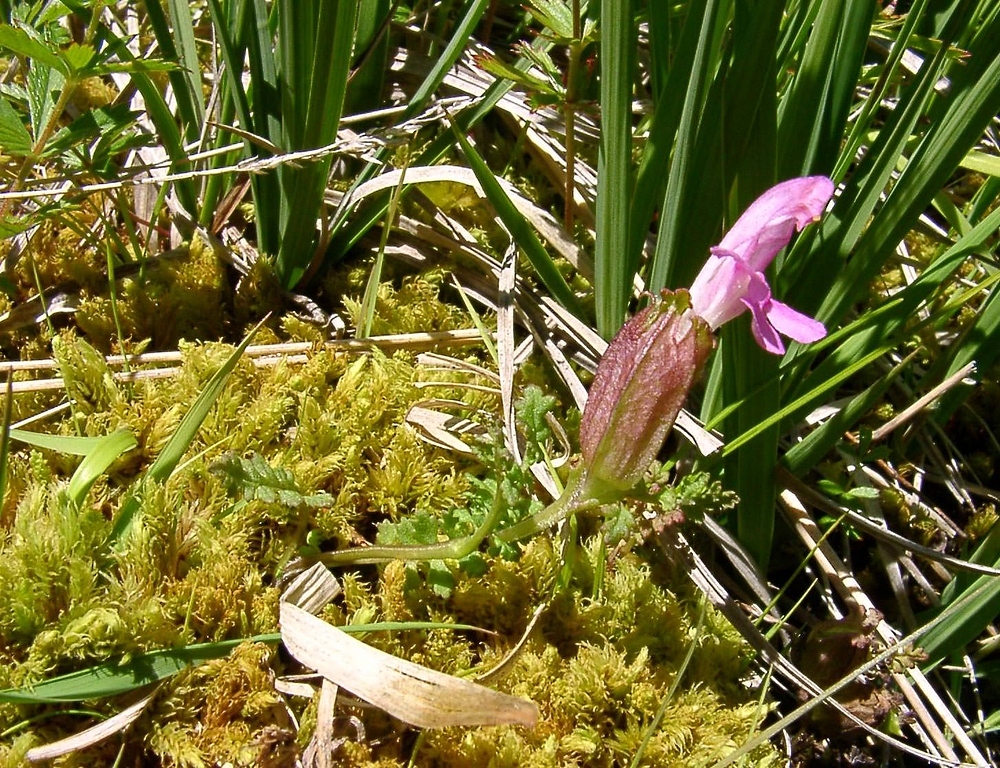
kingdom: Plantae
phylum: Tracheophyta
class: Magnoliopsida
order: Lamiales
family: Orobanchaceae
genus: Pedicularis
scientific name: Pedicularis sylvatica
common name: Lousewort
